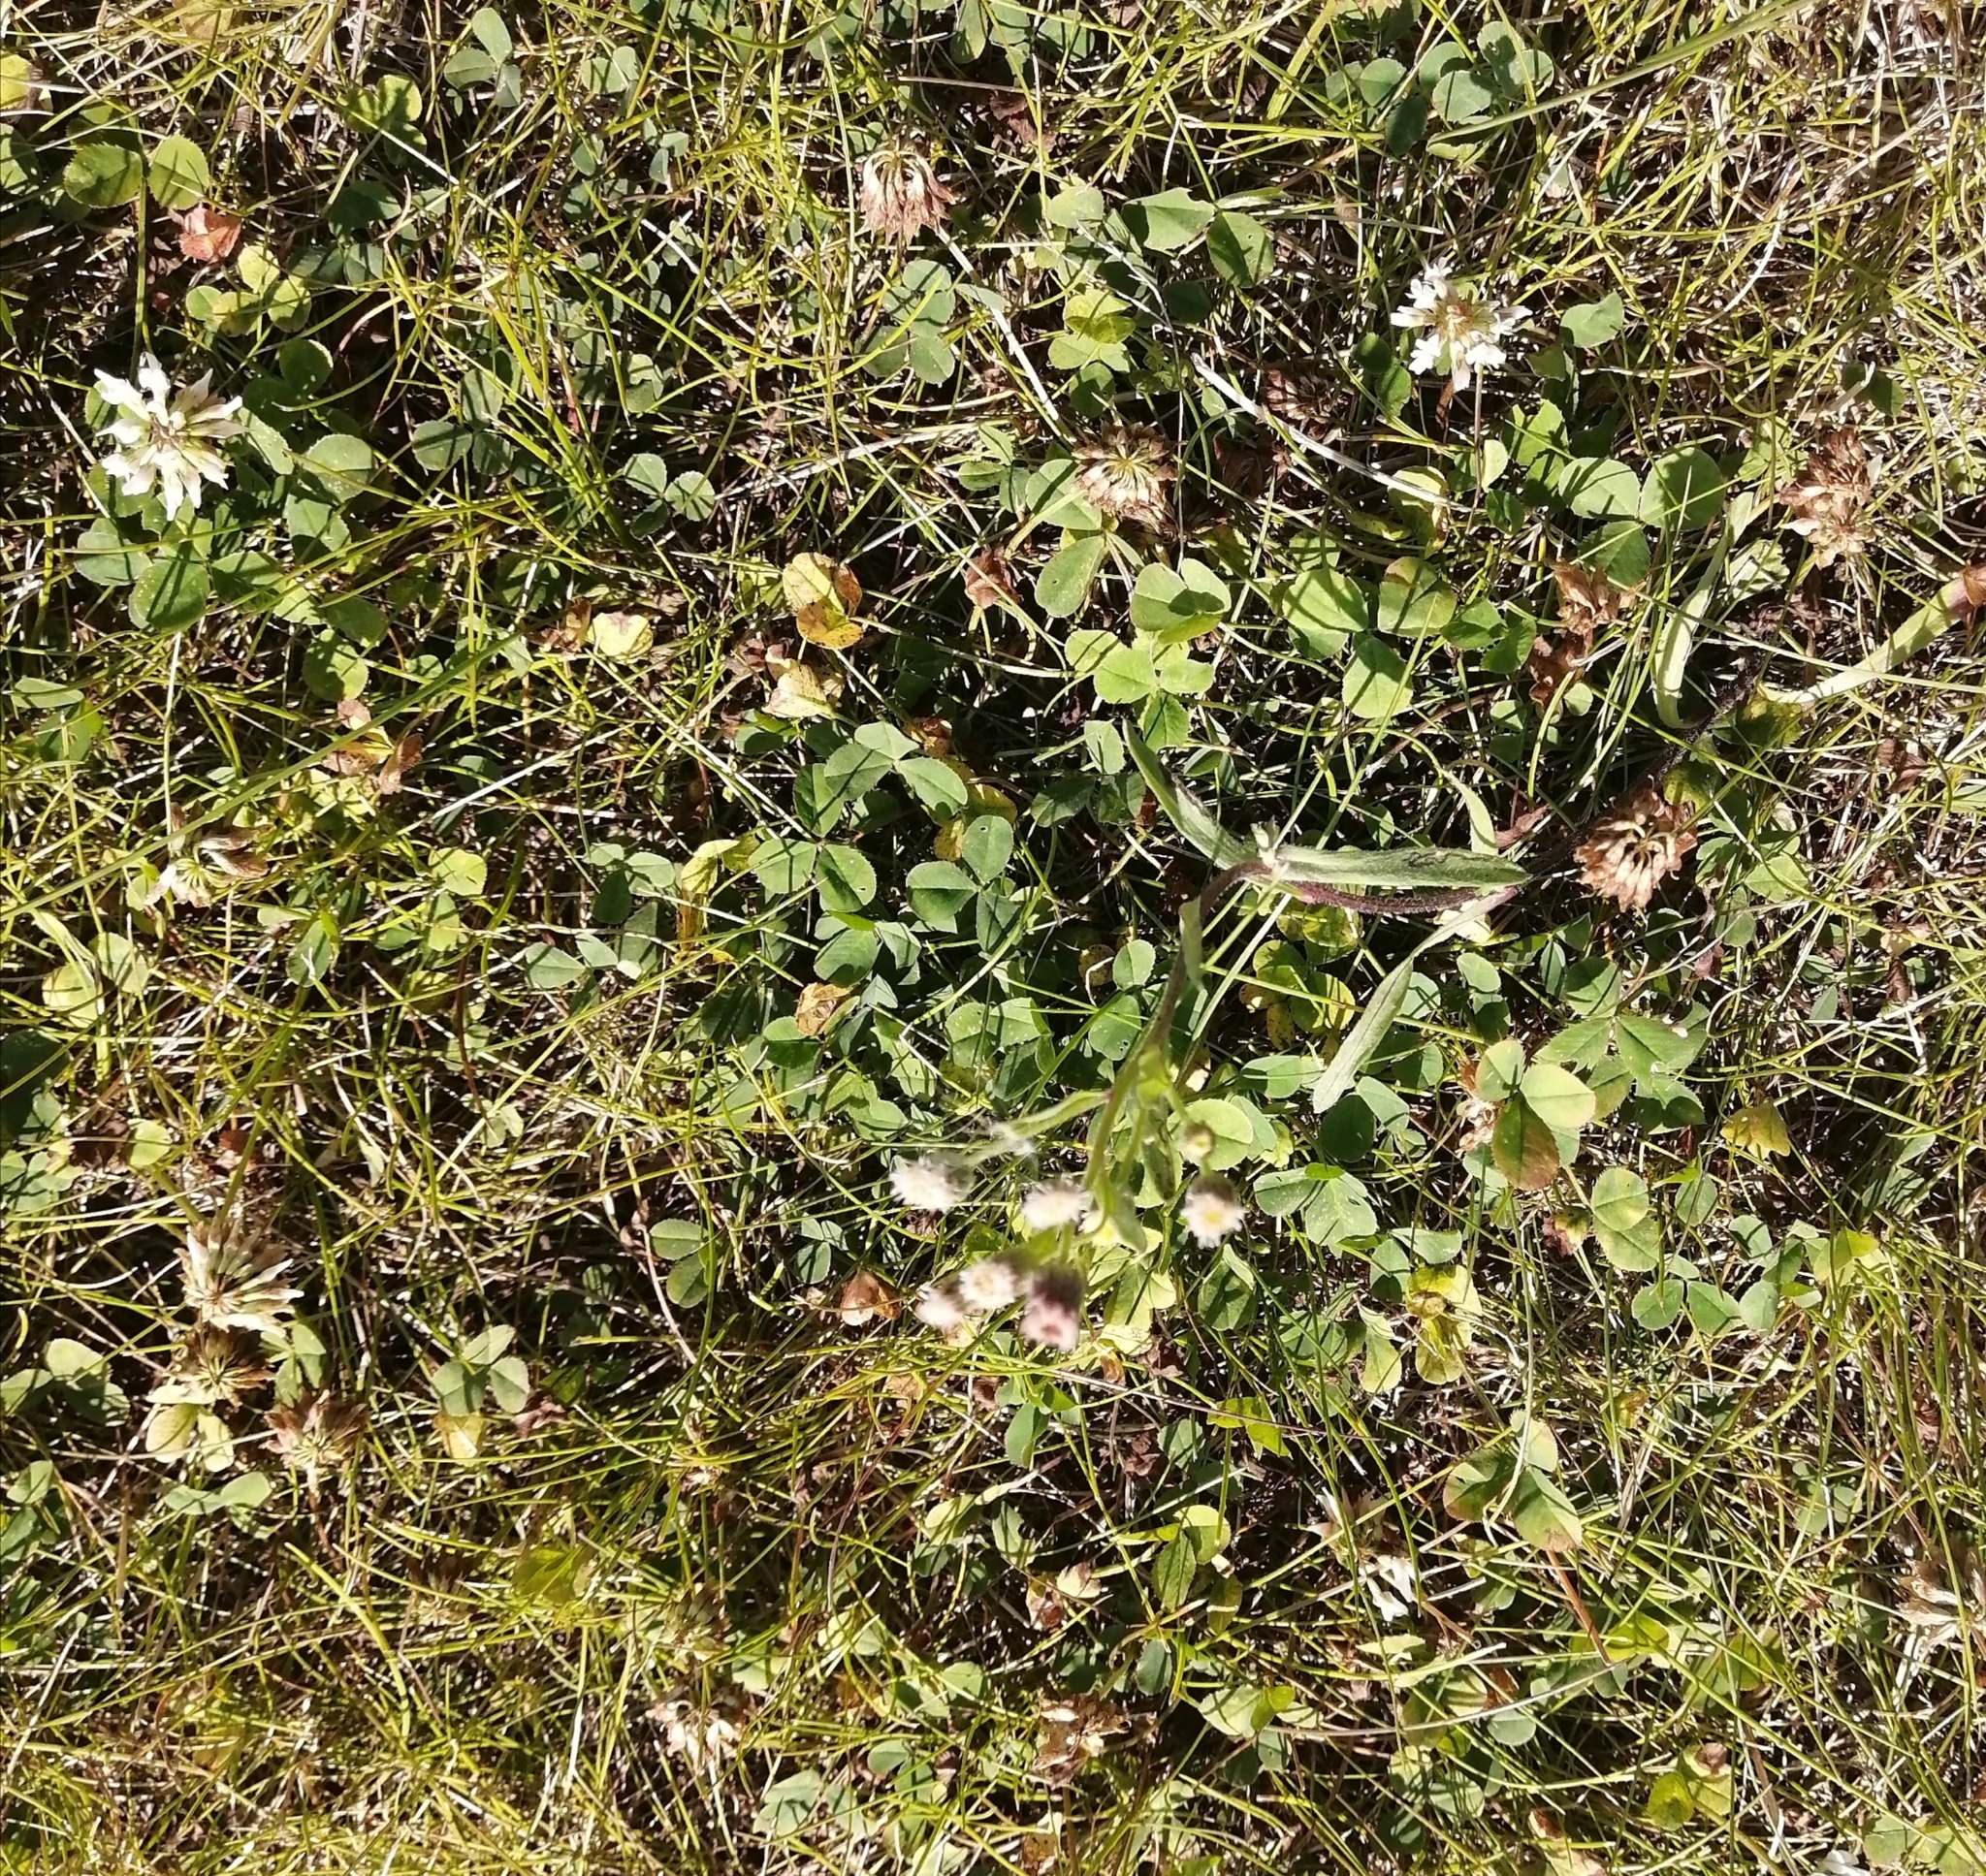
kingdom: Plantae
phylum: Tracheophyta
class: Magnoliopsida
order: Fabales
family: Fabaceae
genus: Trifolium
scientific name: Trifolium repens
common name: White clover
